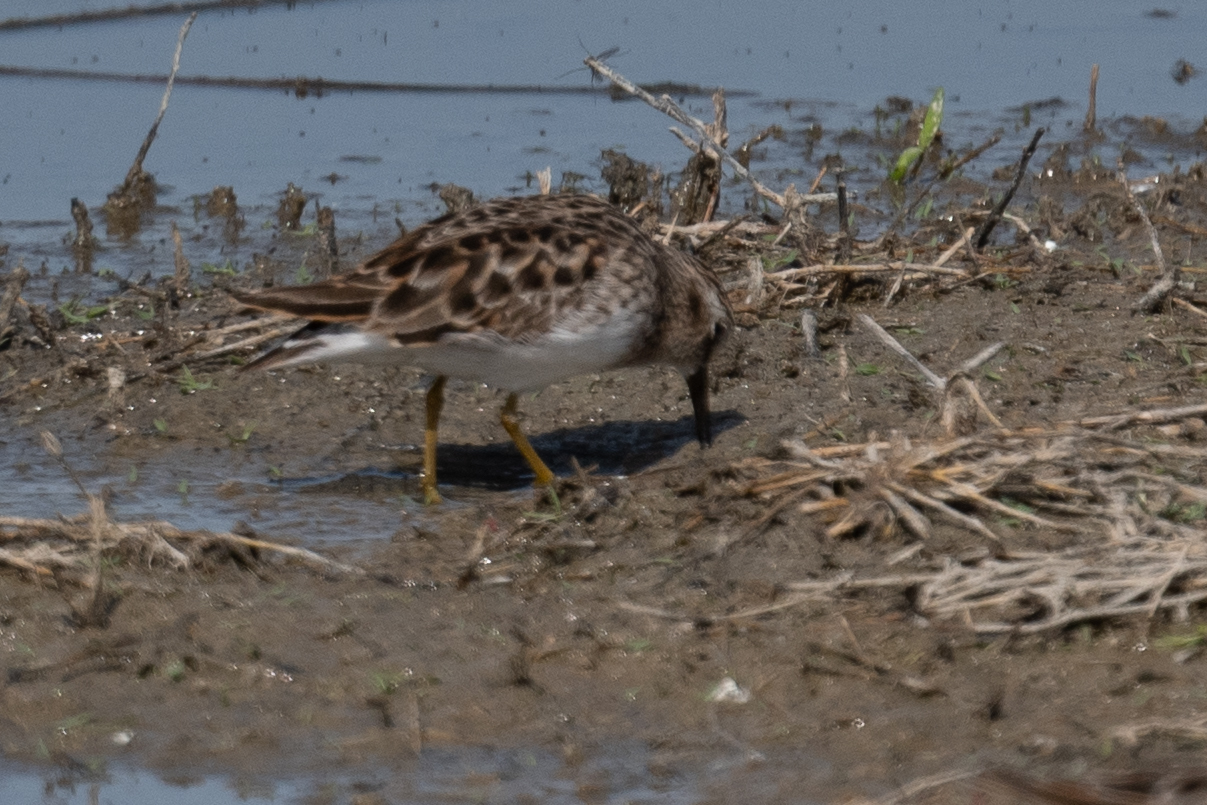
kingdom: Animalia
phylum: Chordata
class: Aves
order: Charadriiformes
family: Scolopacidae
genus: Calidris
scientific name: Calidris minutilla
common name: Least sandpiper
